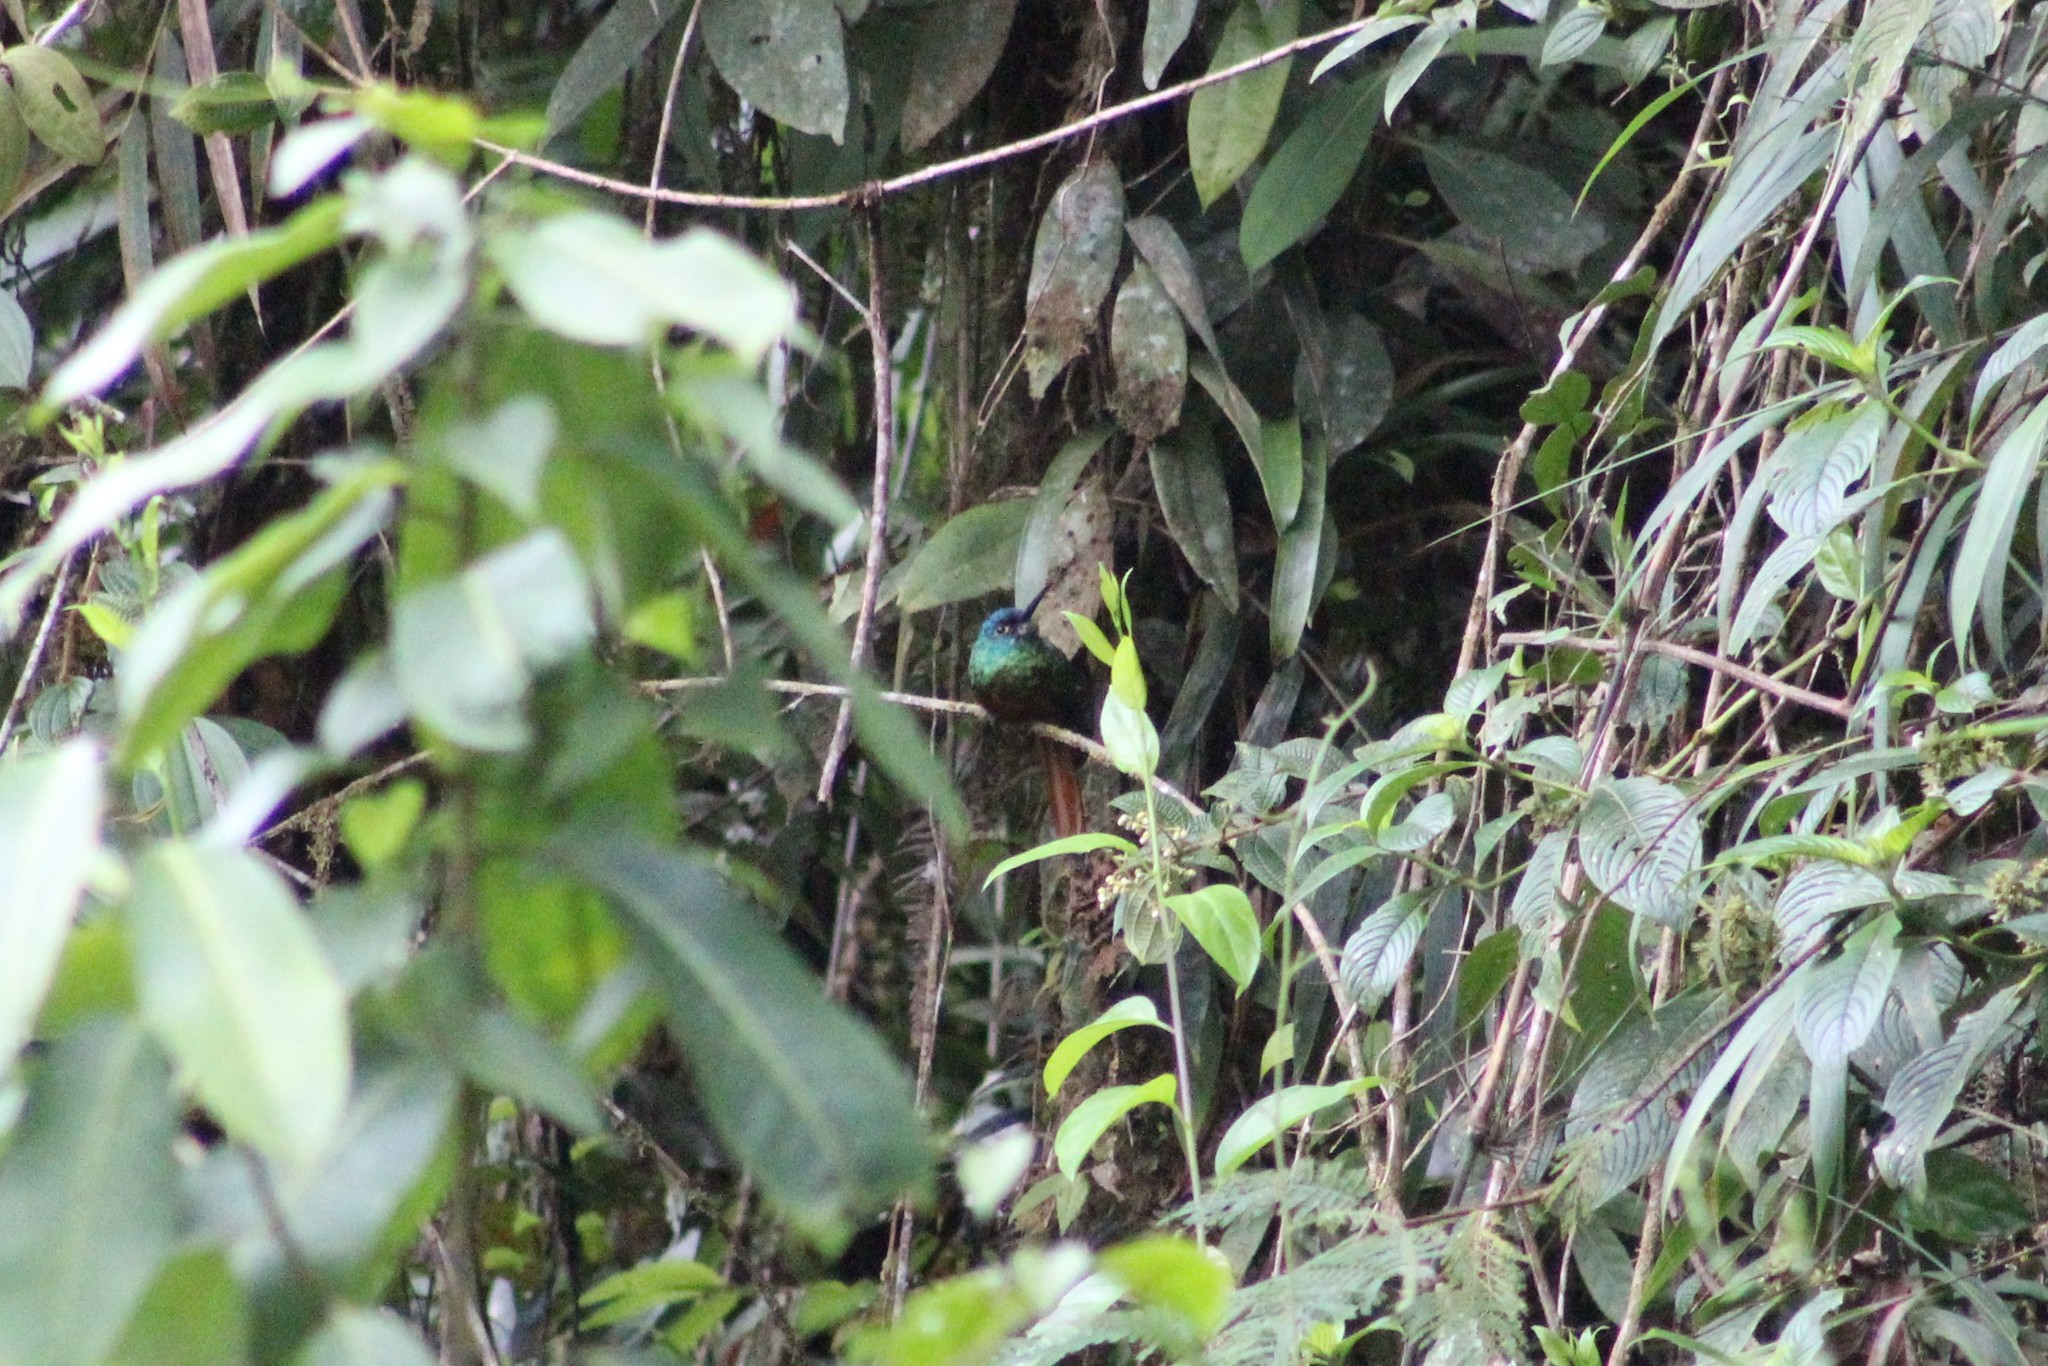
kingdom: Animalia
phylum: Chordata
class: Aves
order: Piciformes
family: Galbulidae
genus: Galbula
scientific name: Galbula pastazae
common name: Coppery-chested jacamar
